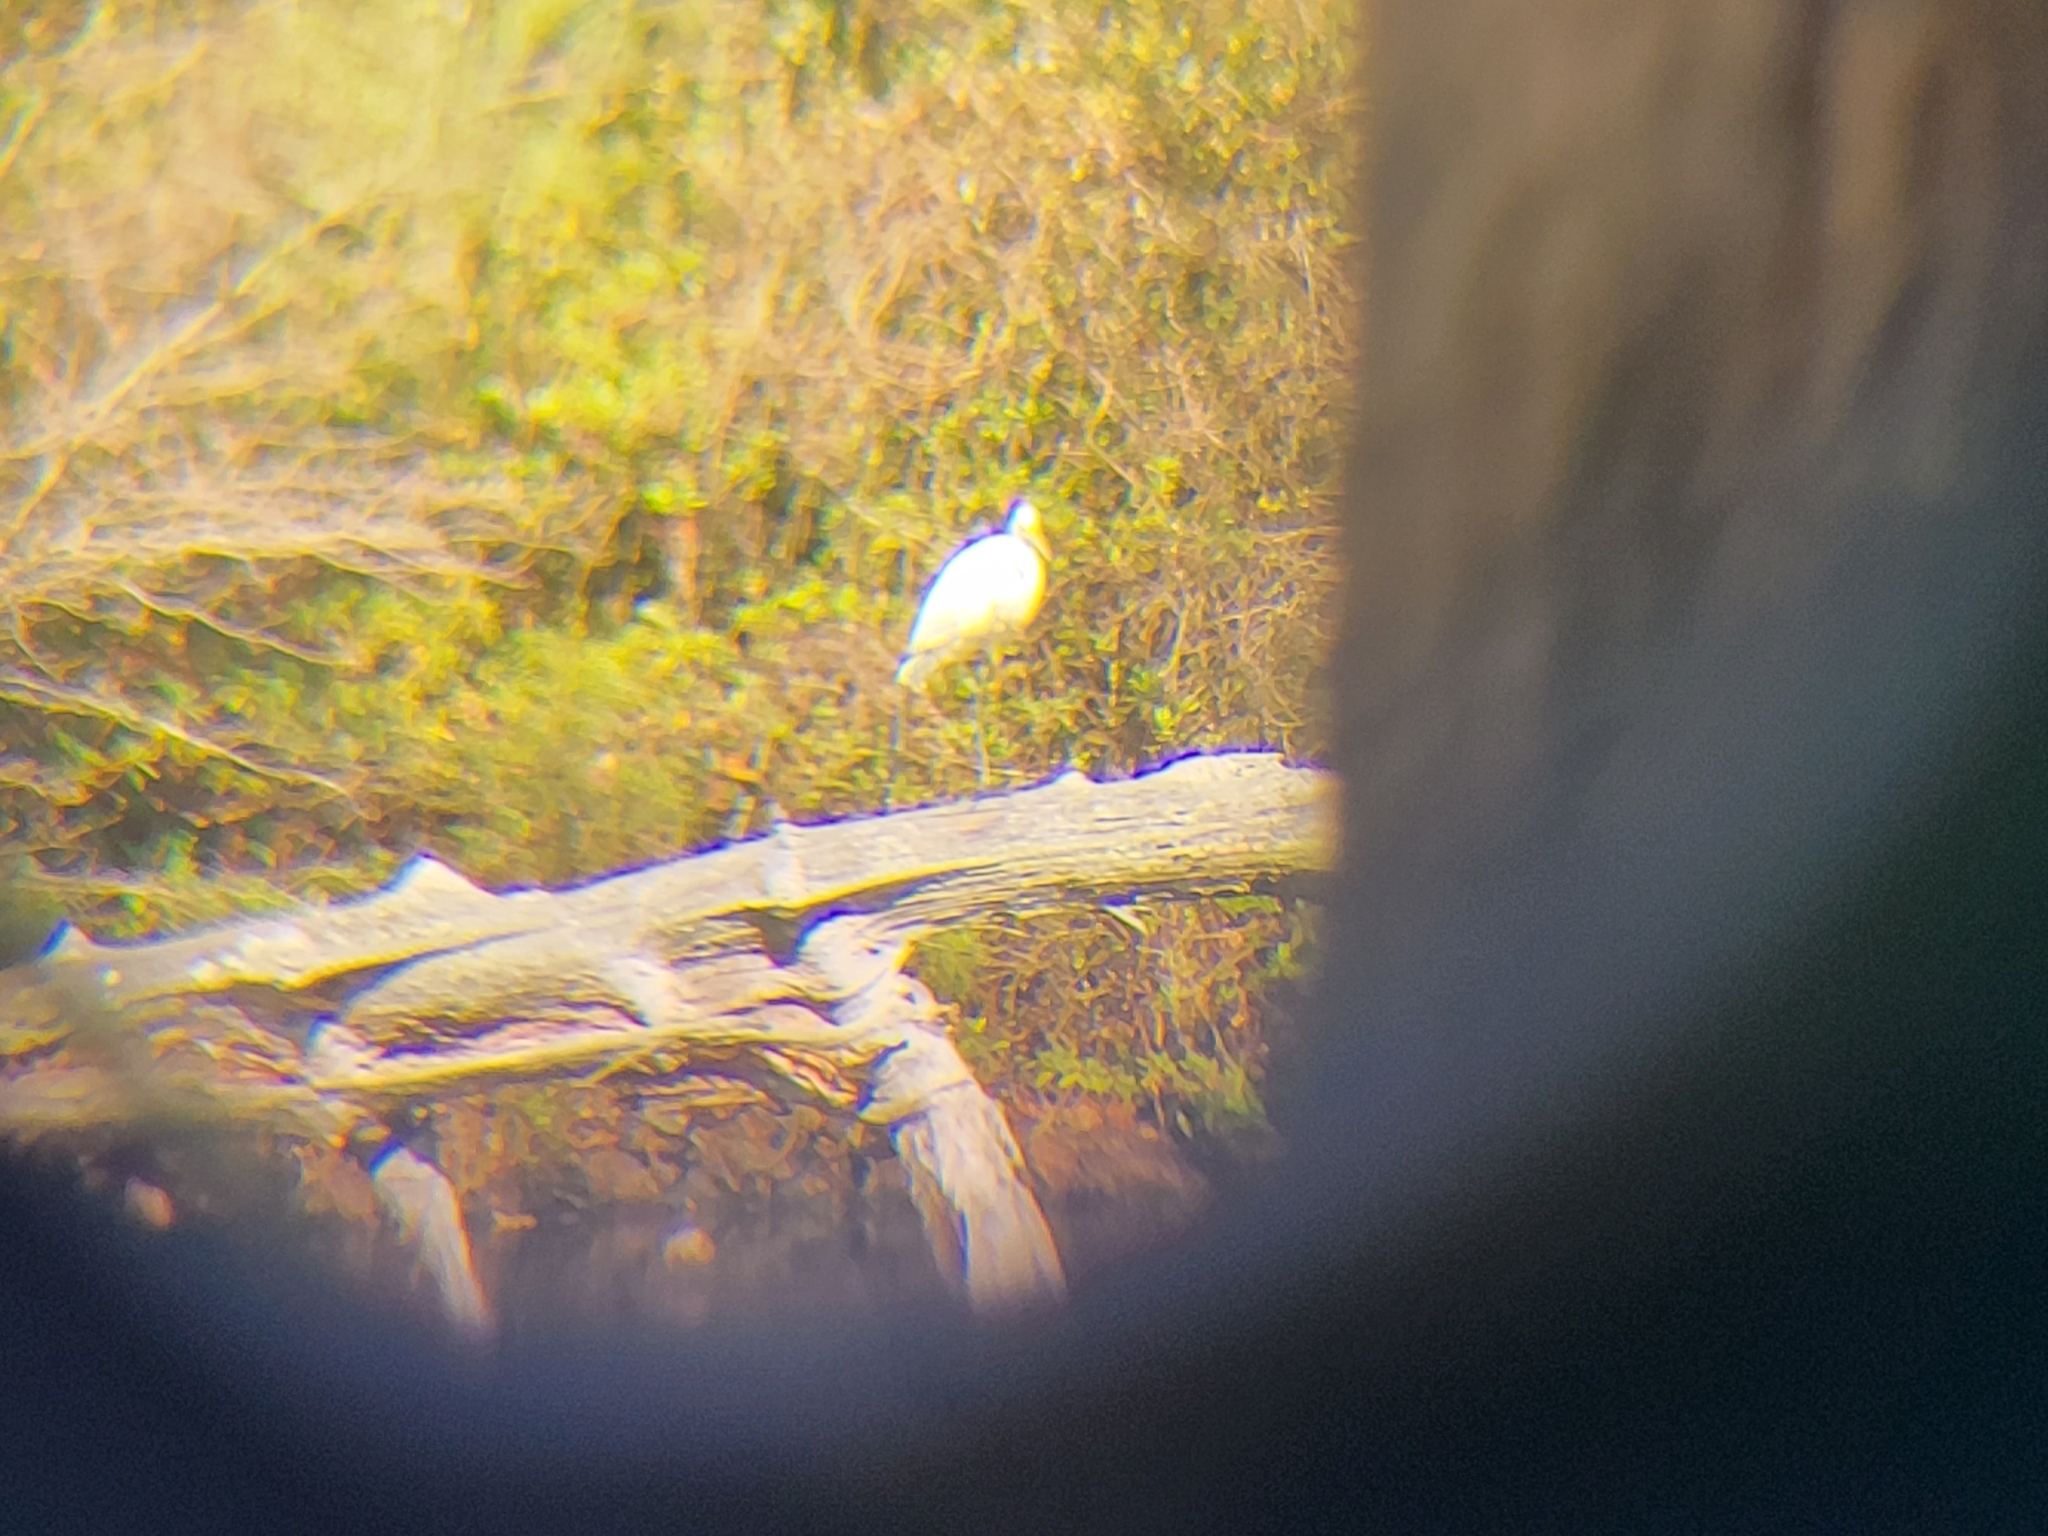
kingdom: Animalia
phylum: Chordata
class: Aves
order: Pelecaniformes
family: Ardeidae
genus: Ardea
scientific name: Ardea alba
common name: Great egret
